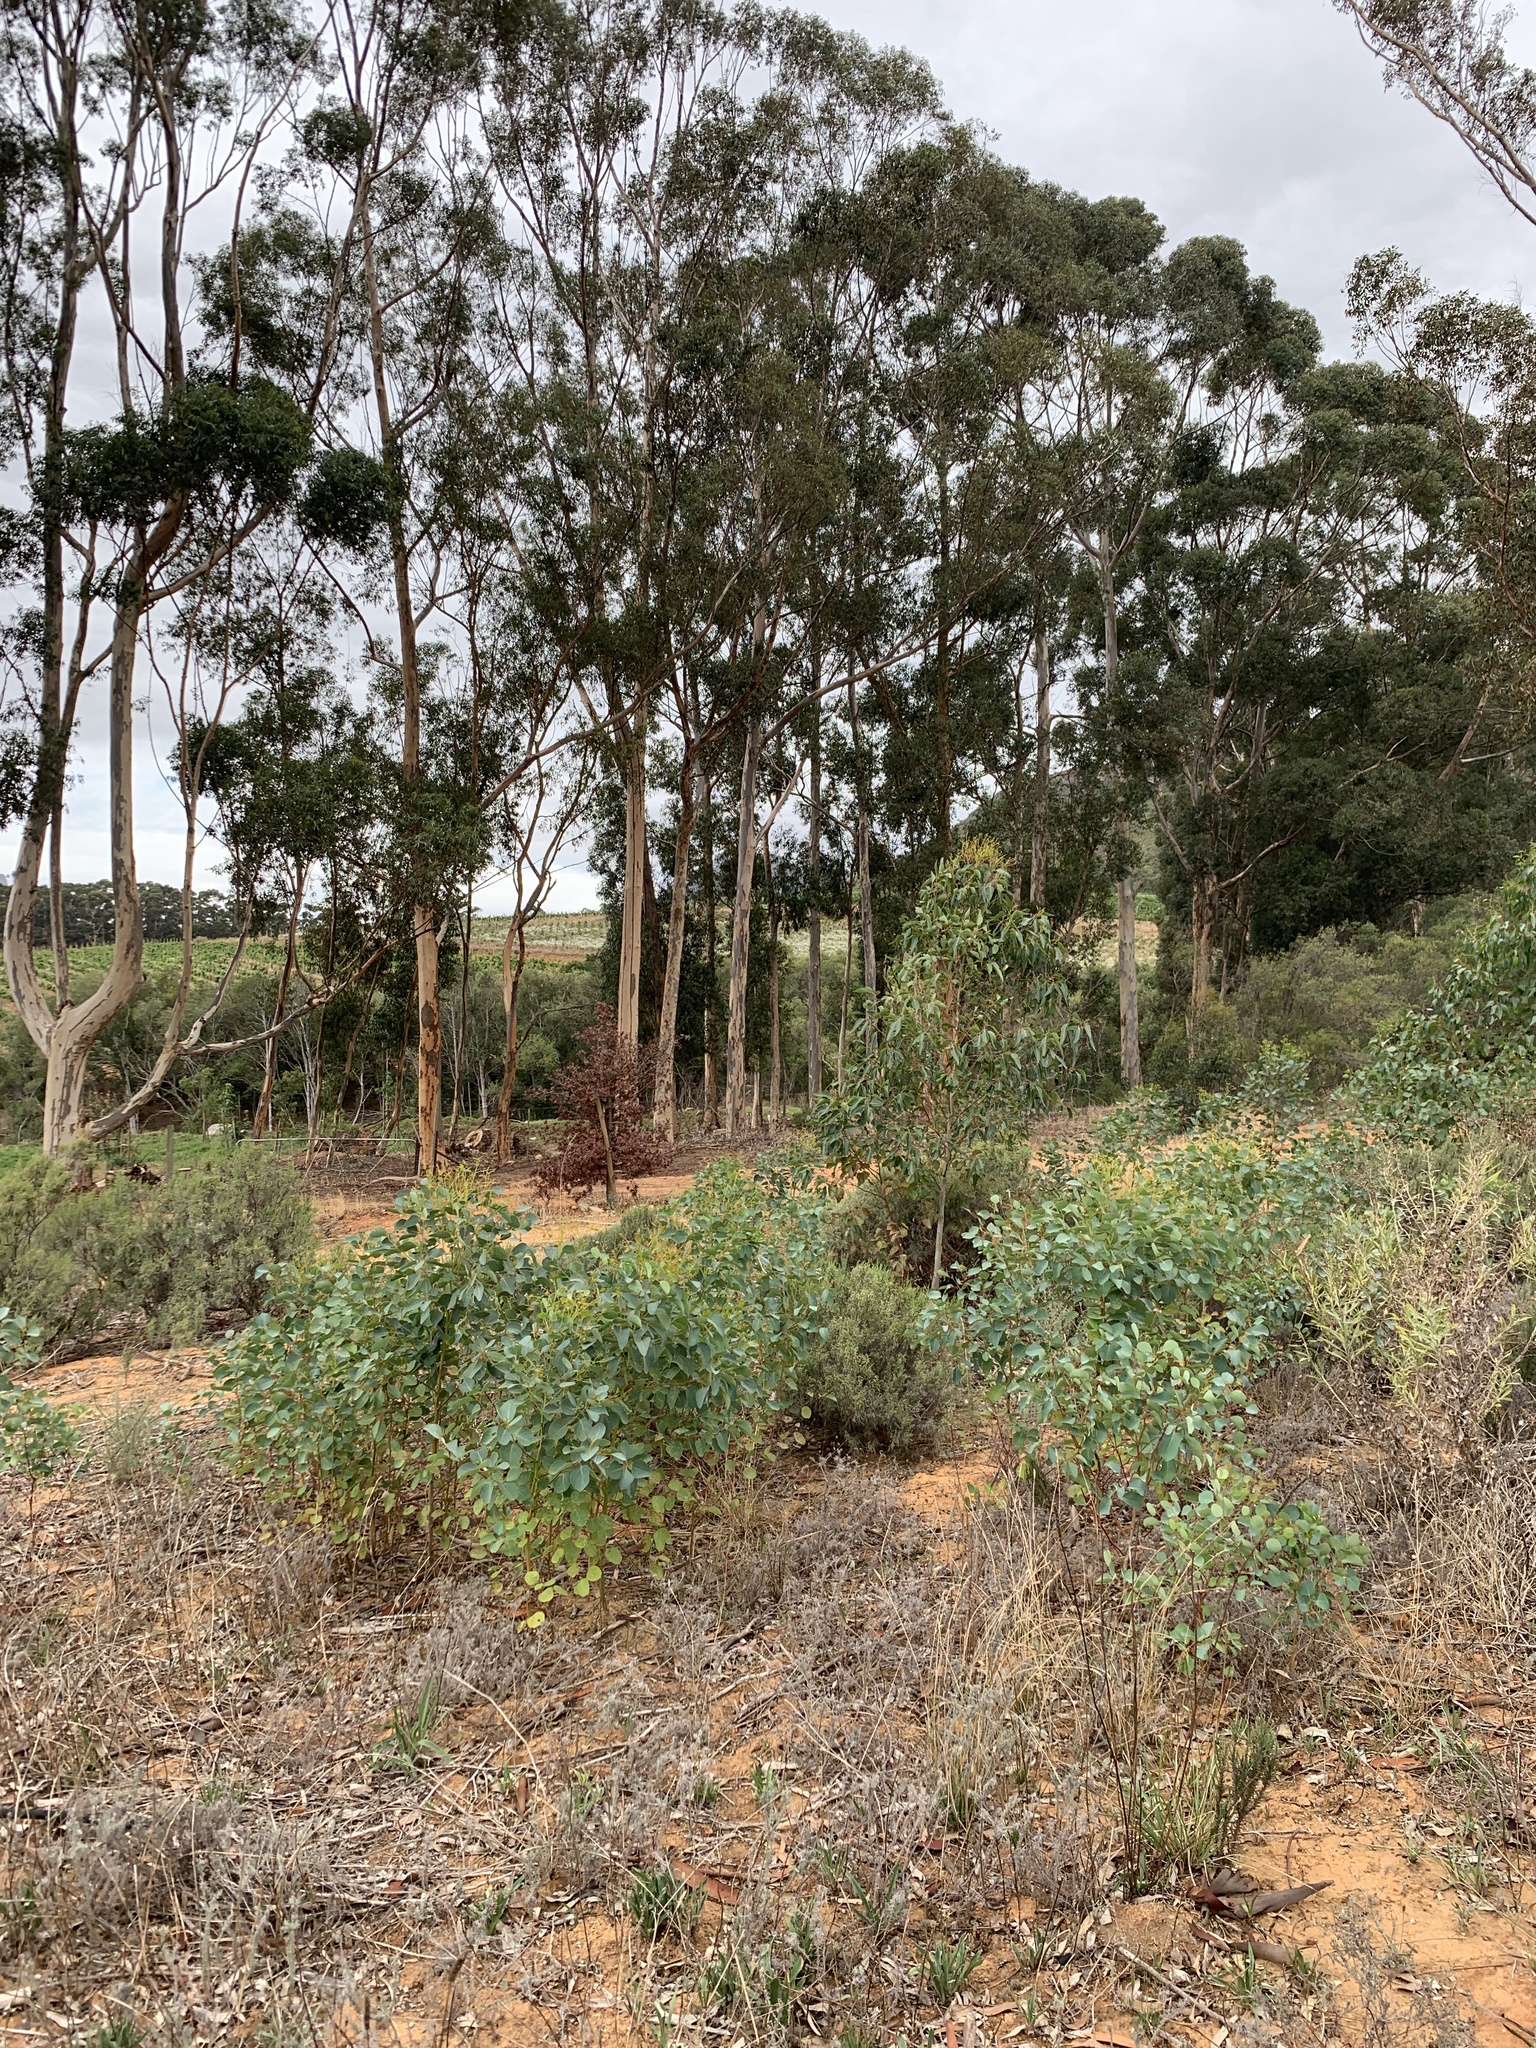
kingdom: Plantae
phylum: Tracheophyta
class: Magnoliopsida
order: Myrtales
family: Myrtaceae
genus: Eucalyptus
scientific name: Eucalyptus cladocalyx
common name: Sugargum
